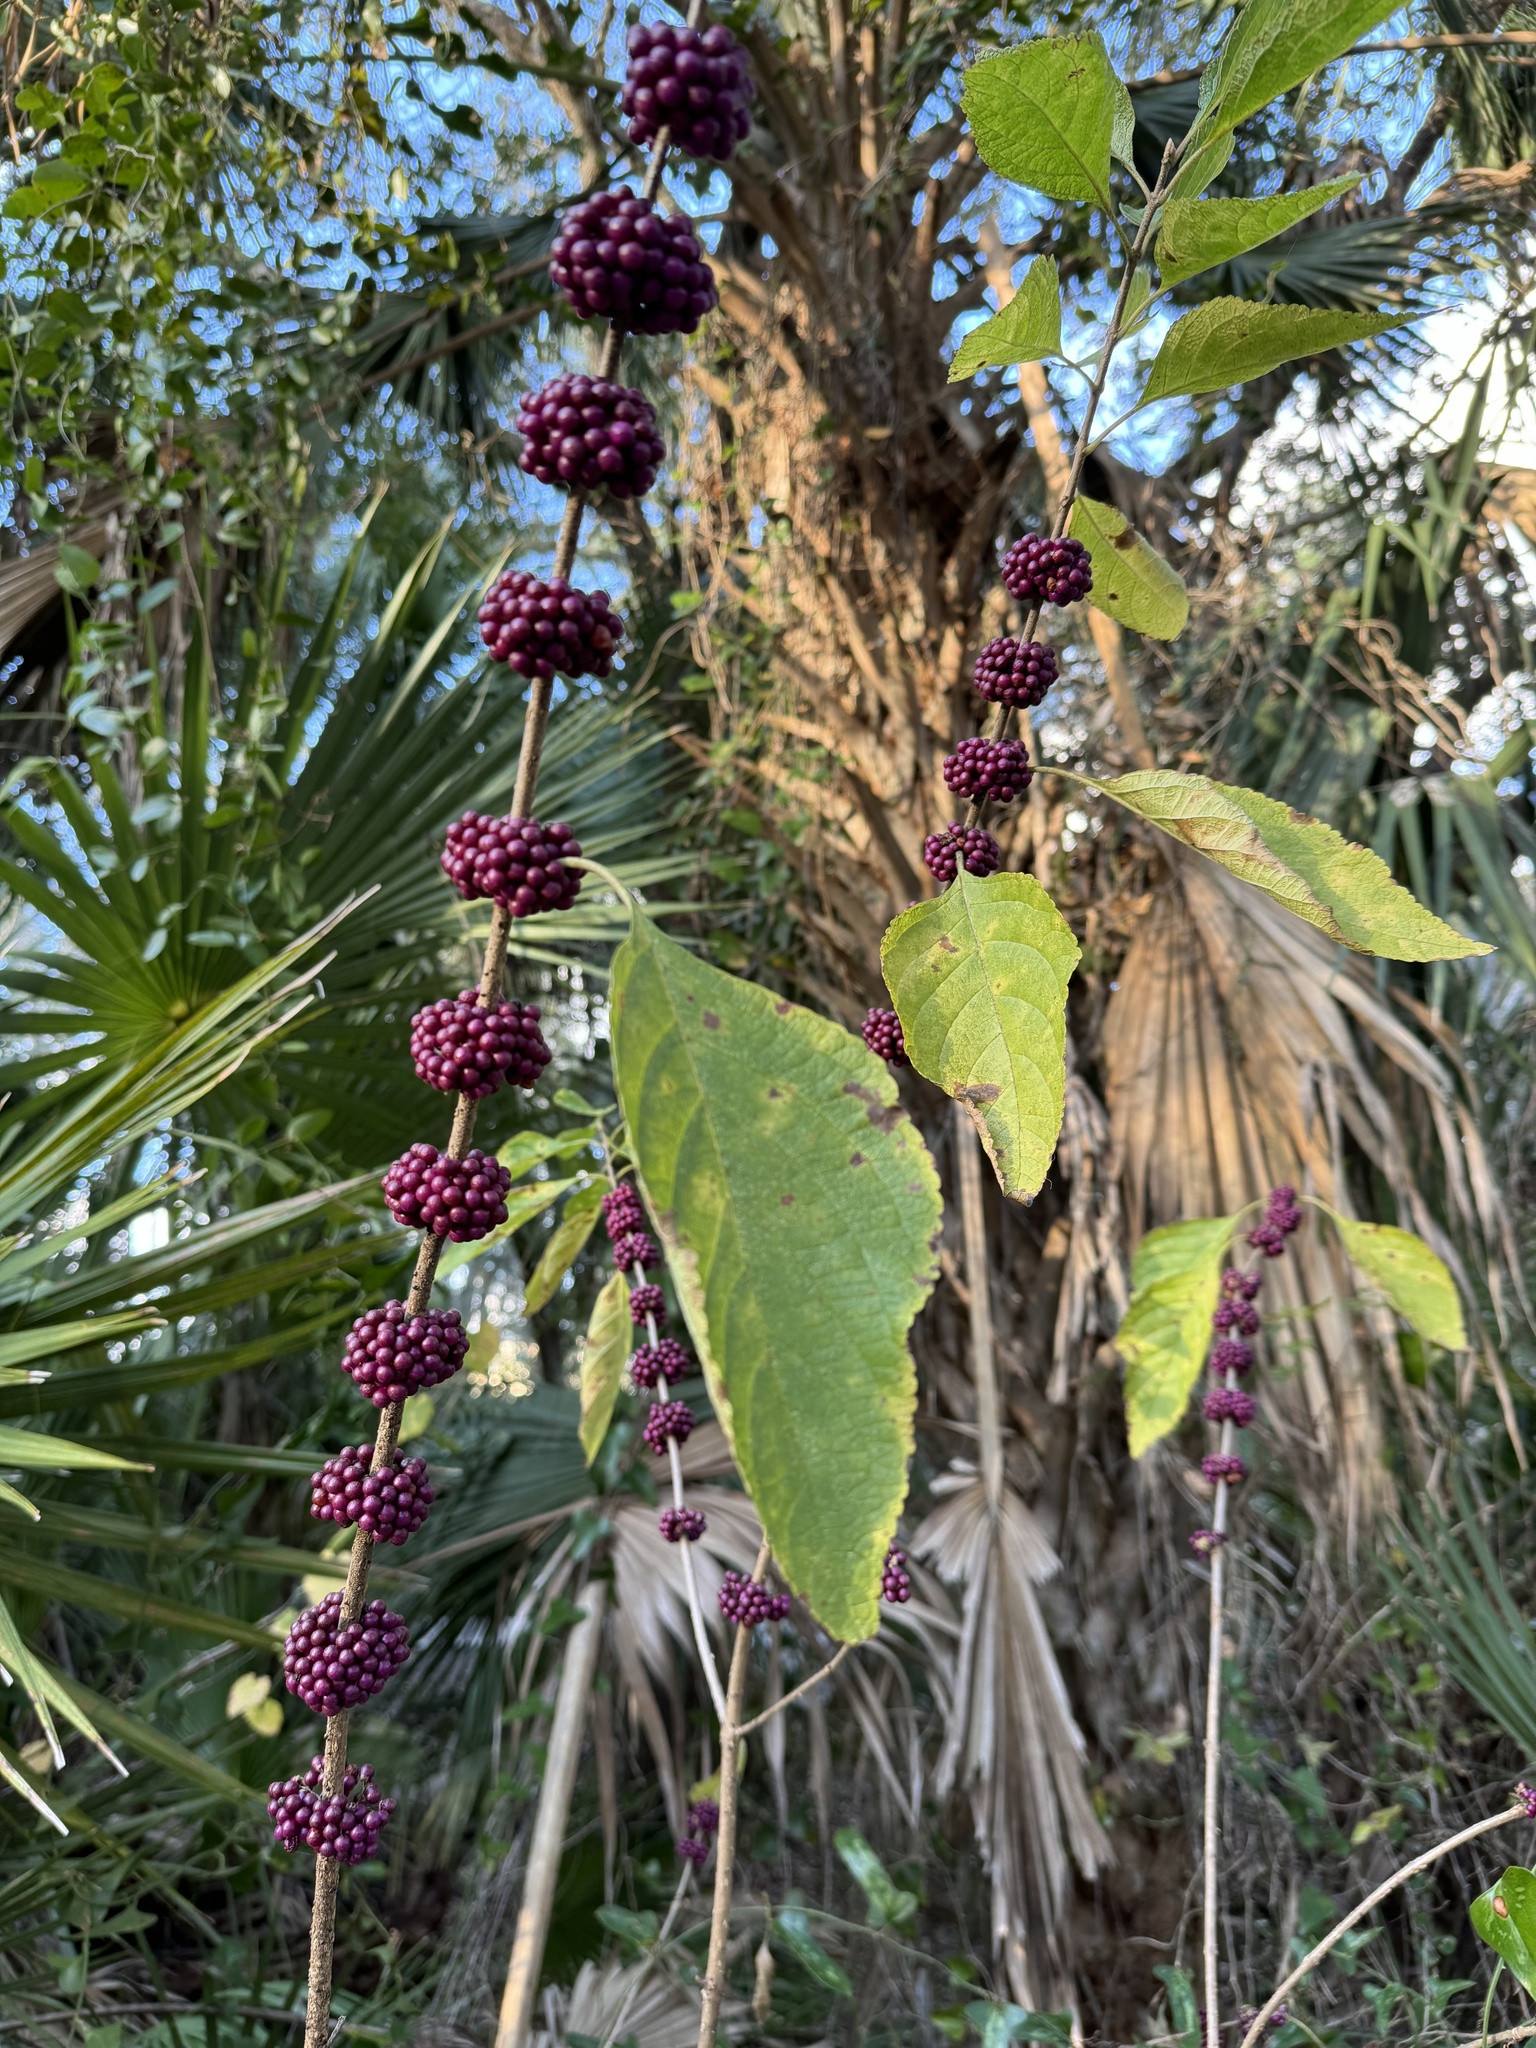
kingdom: Plantae
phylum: Tracheophyta
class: Magnoliopsida
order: Lamiales
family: Lamiaceae
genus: Callicarpa
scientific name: Callicarpa americana
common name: American beautyberry
